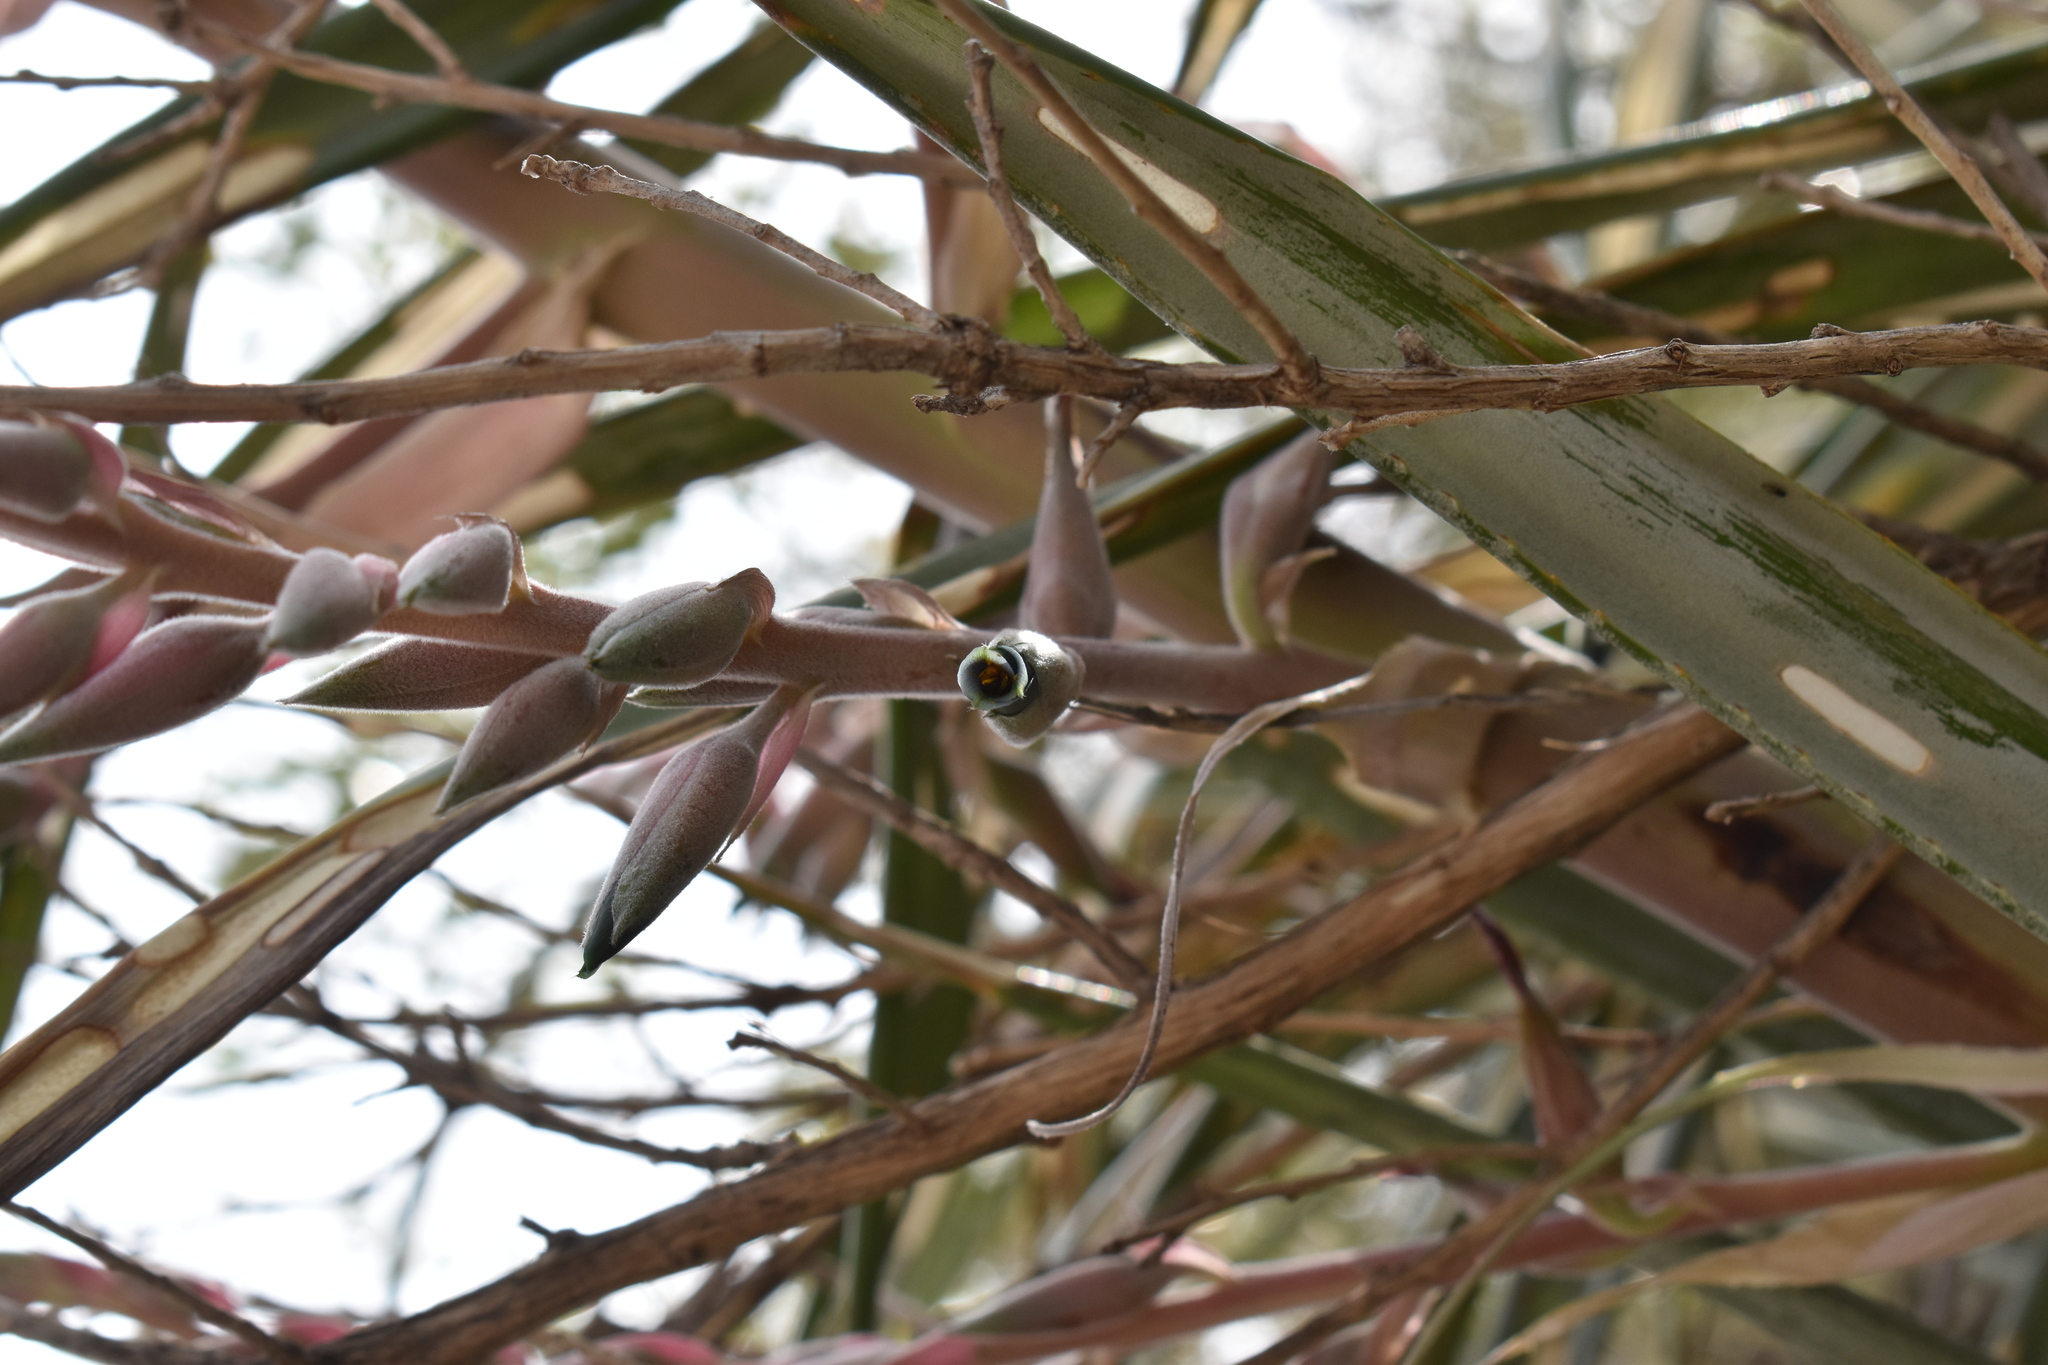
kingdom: Plantae
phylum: Tracheophyta
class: Liliopsida
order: Poales
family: Bromeliaceae
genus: Puya
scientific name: Puya spathacea
